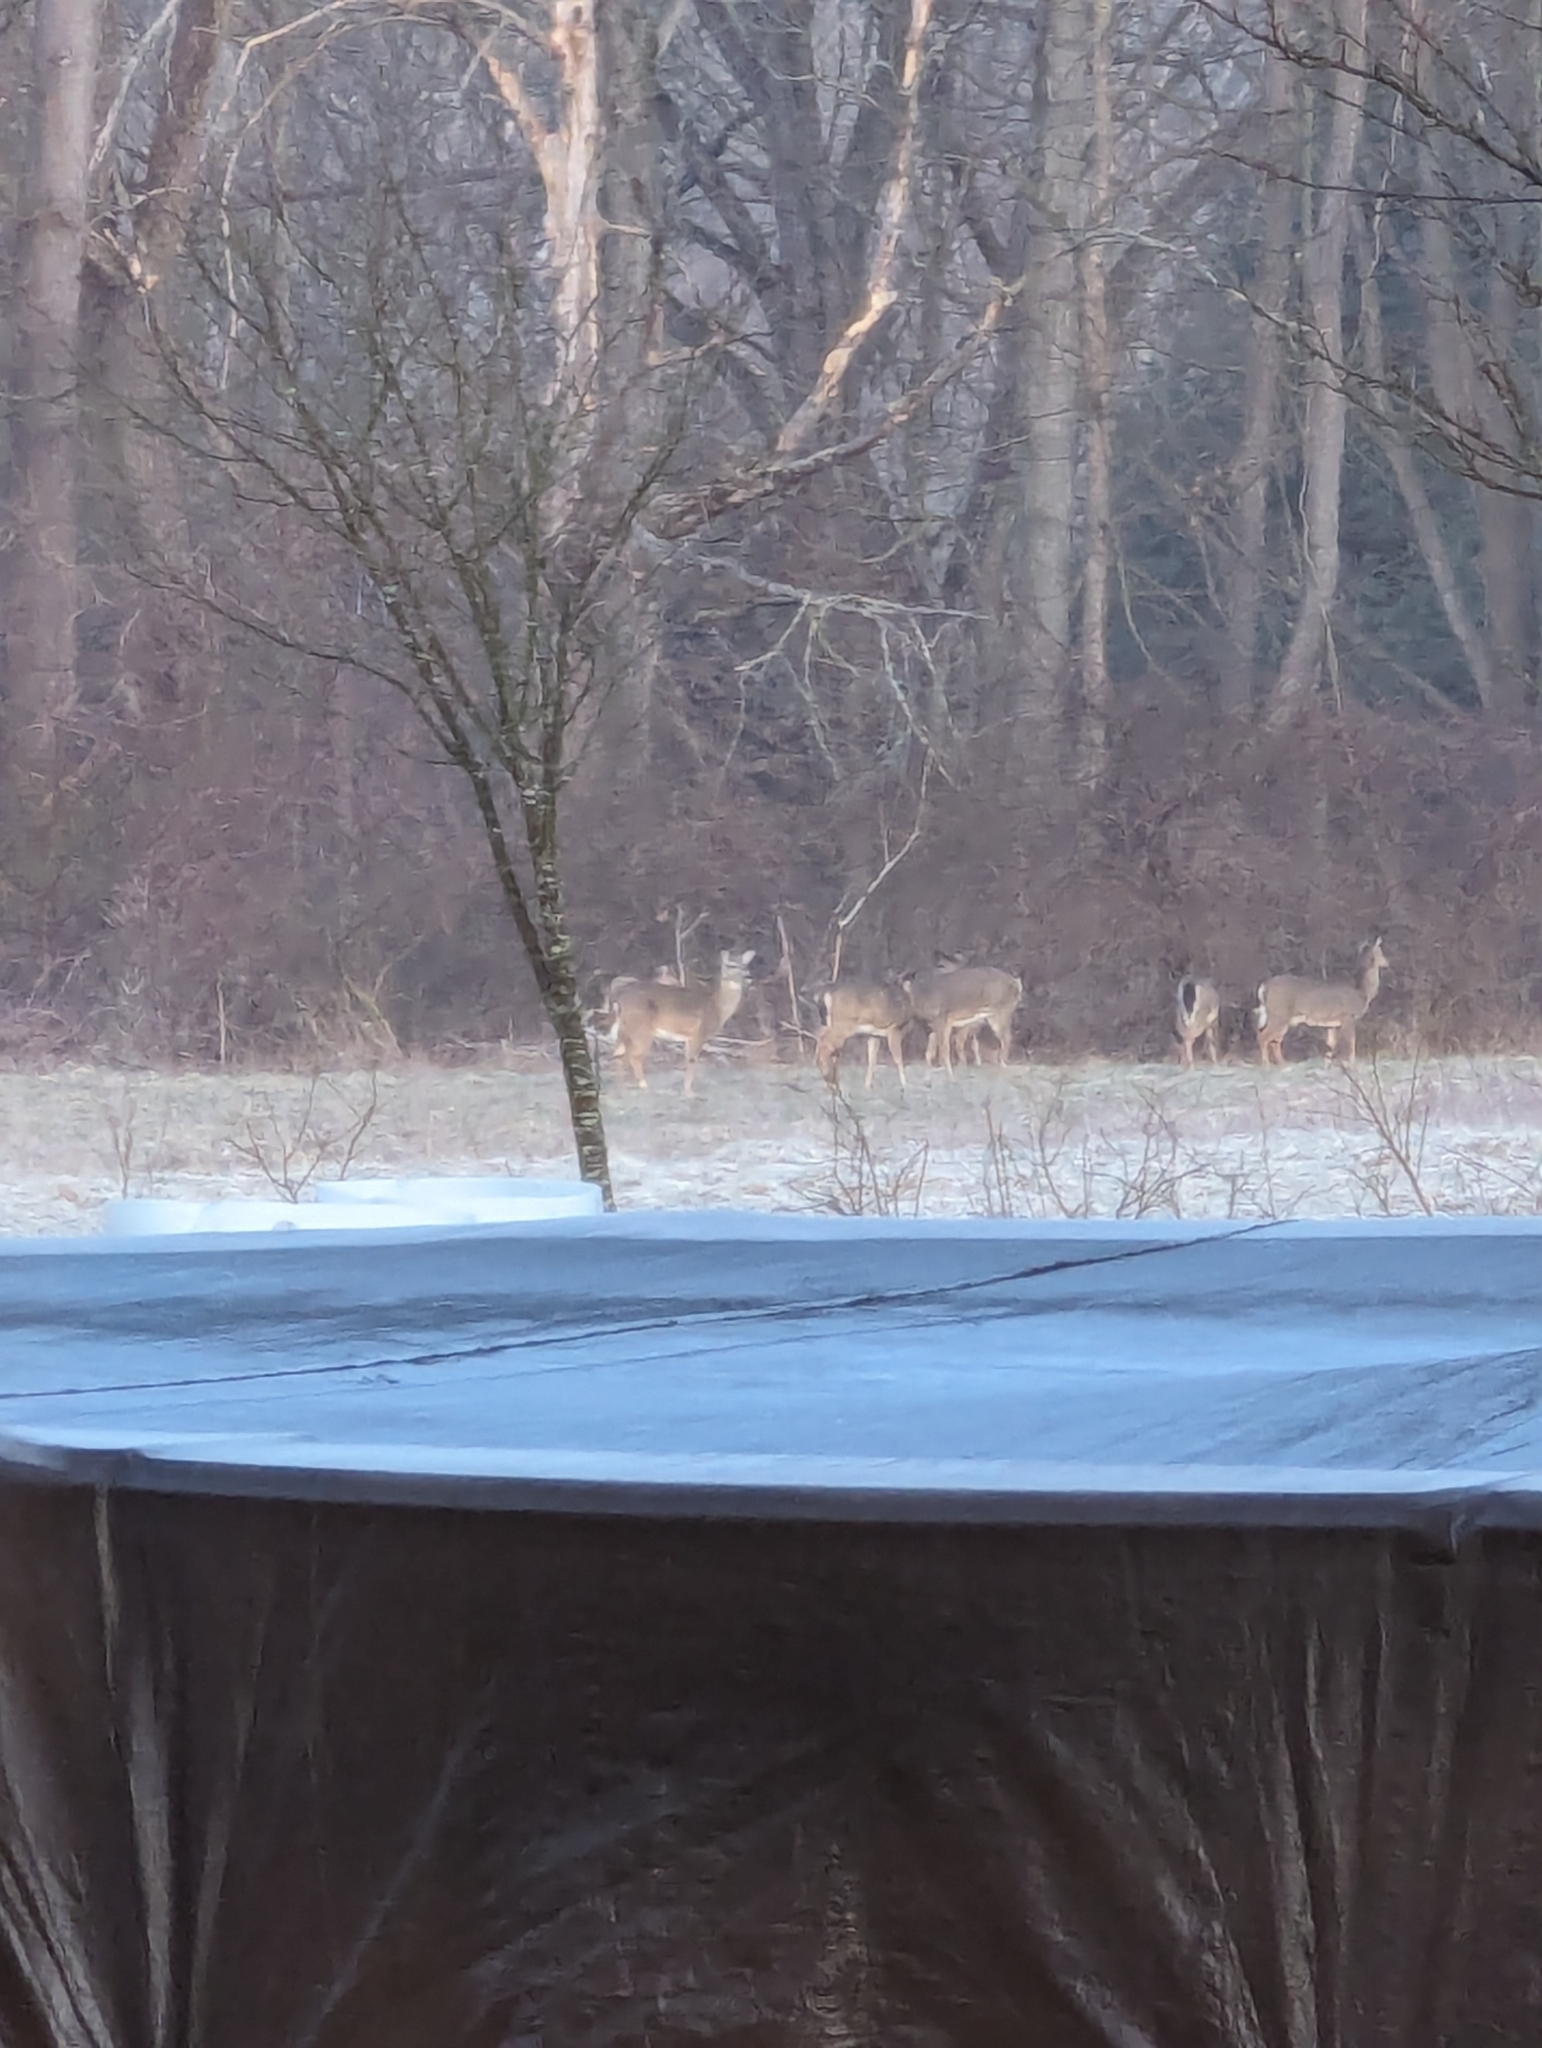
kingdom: Animalia
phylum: Chordata
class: Mammalia
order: Artiodactyla
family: Cervidae
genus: Odocoileus
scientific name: Odocoileus virginianus
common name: White-tailed deer
